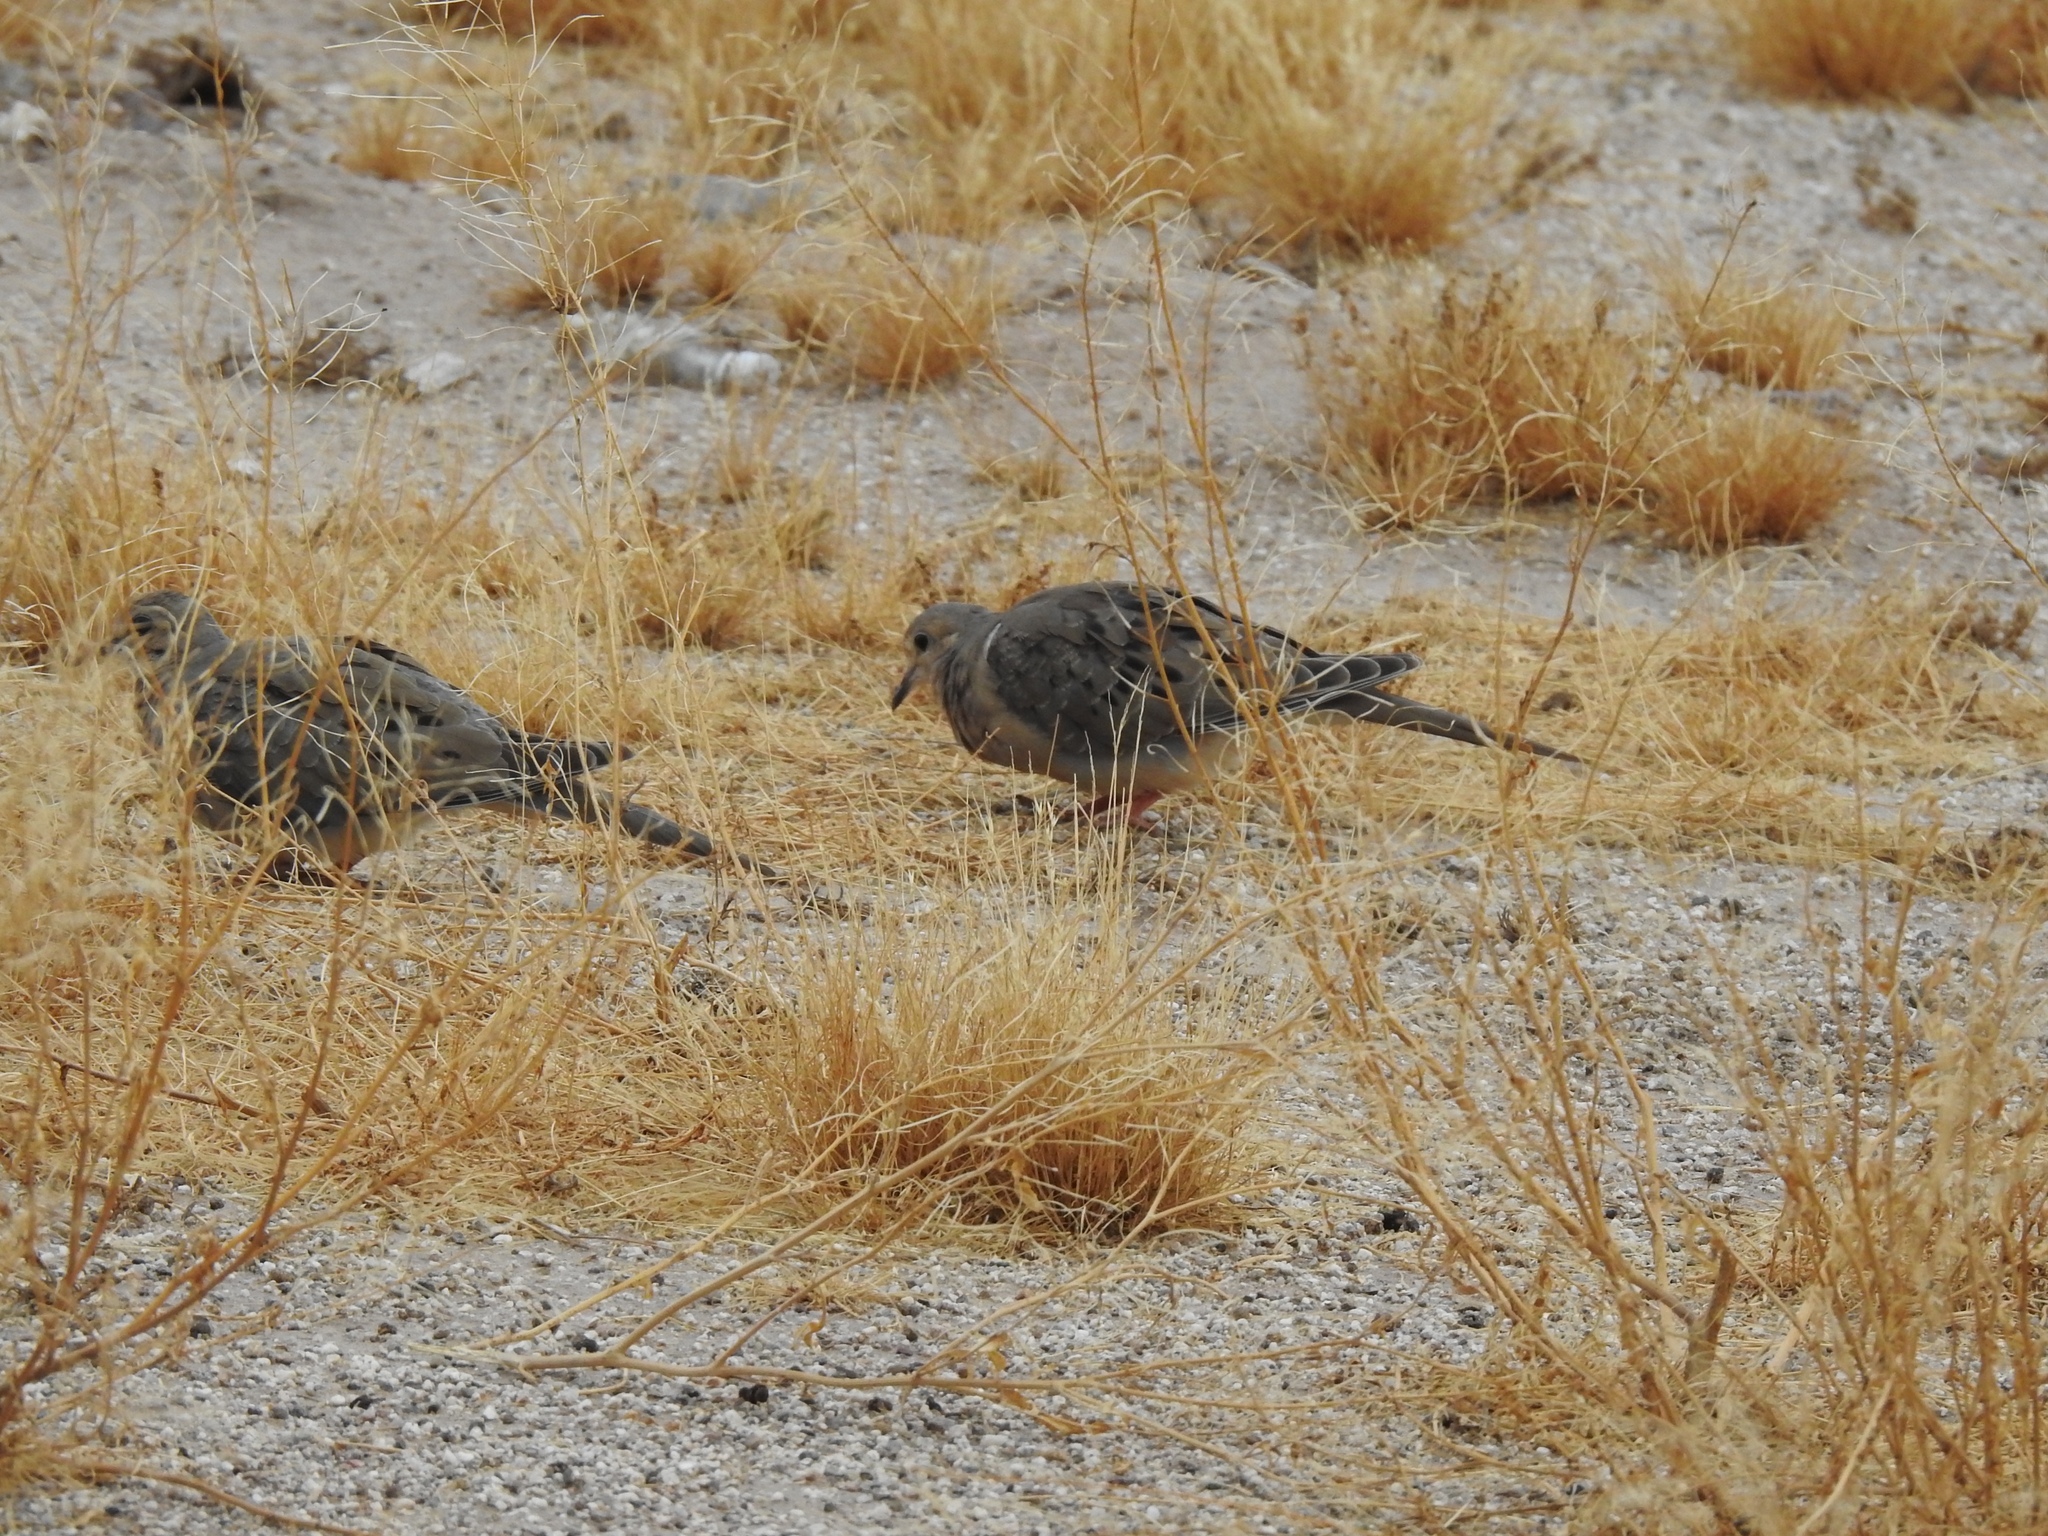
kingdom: Animalia
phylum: Chordata
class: Aves
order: Columbiformes
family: Columbidae
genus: Zenaida
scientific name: Zenaida macroura
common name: Mourning dove
